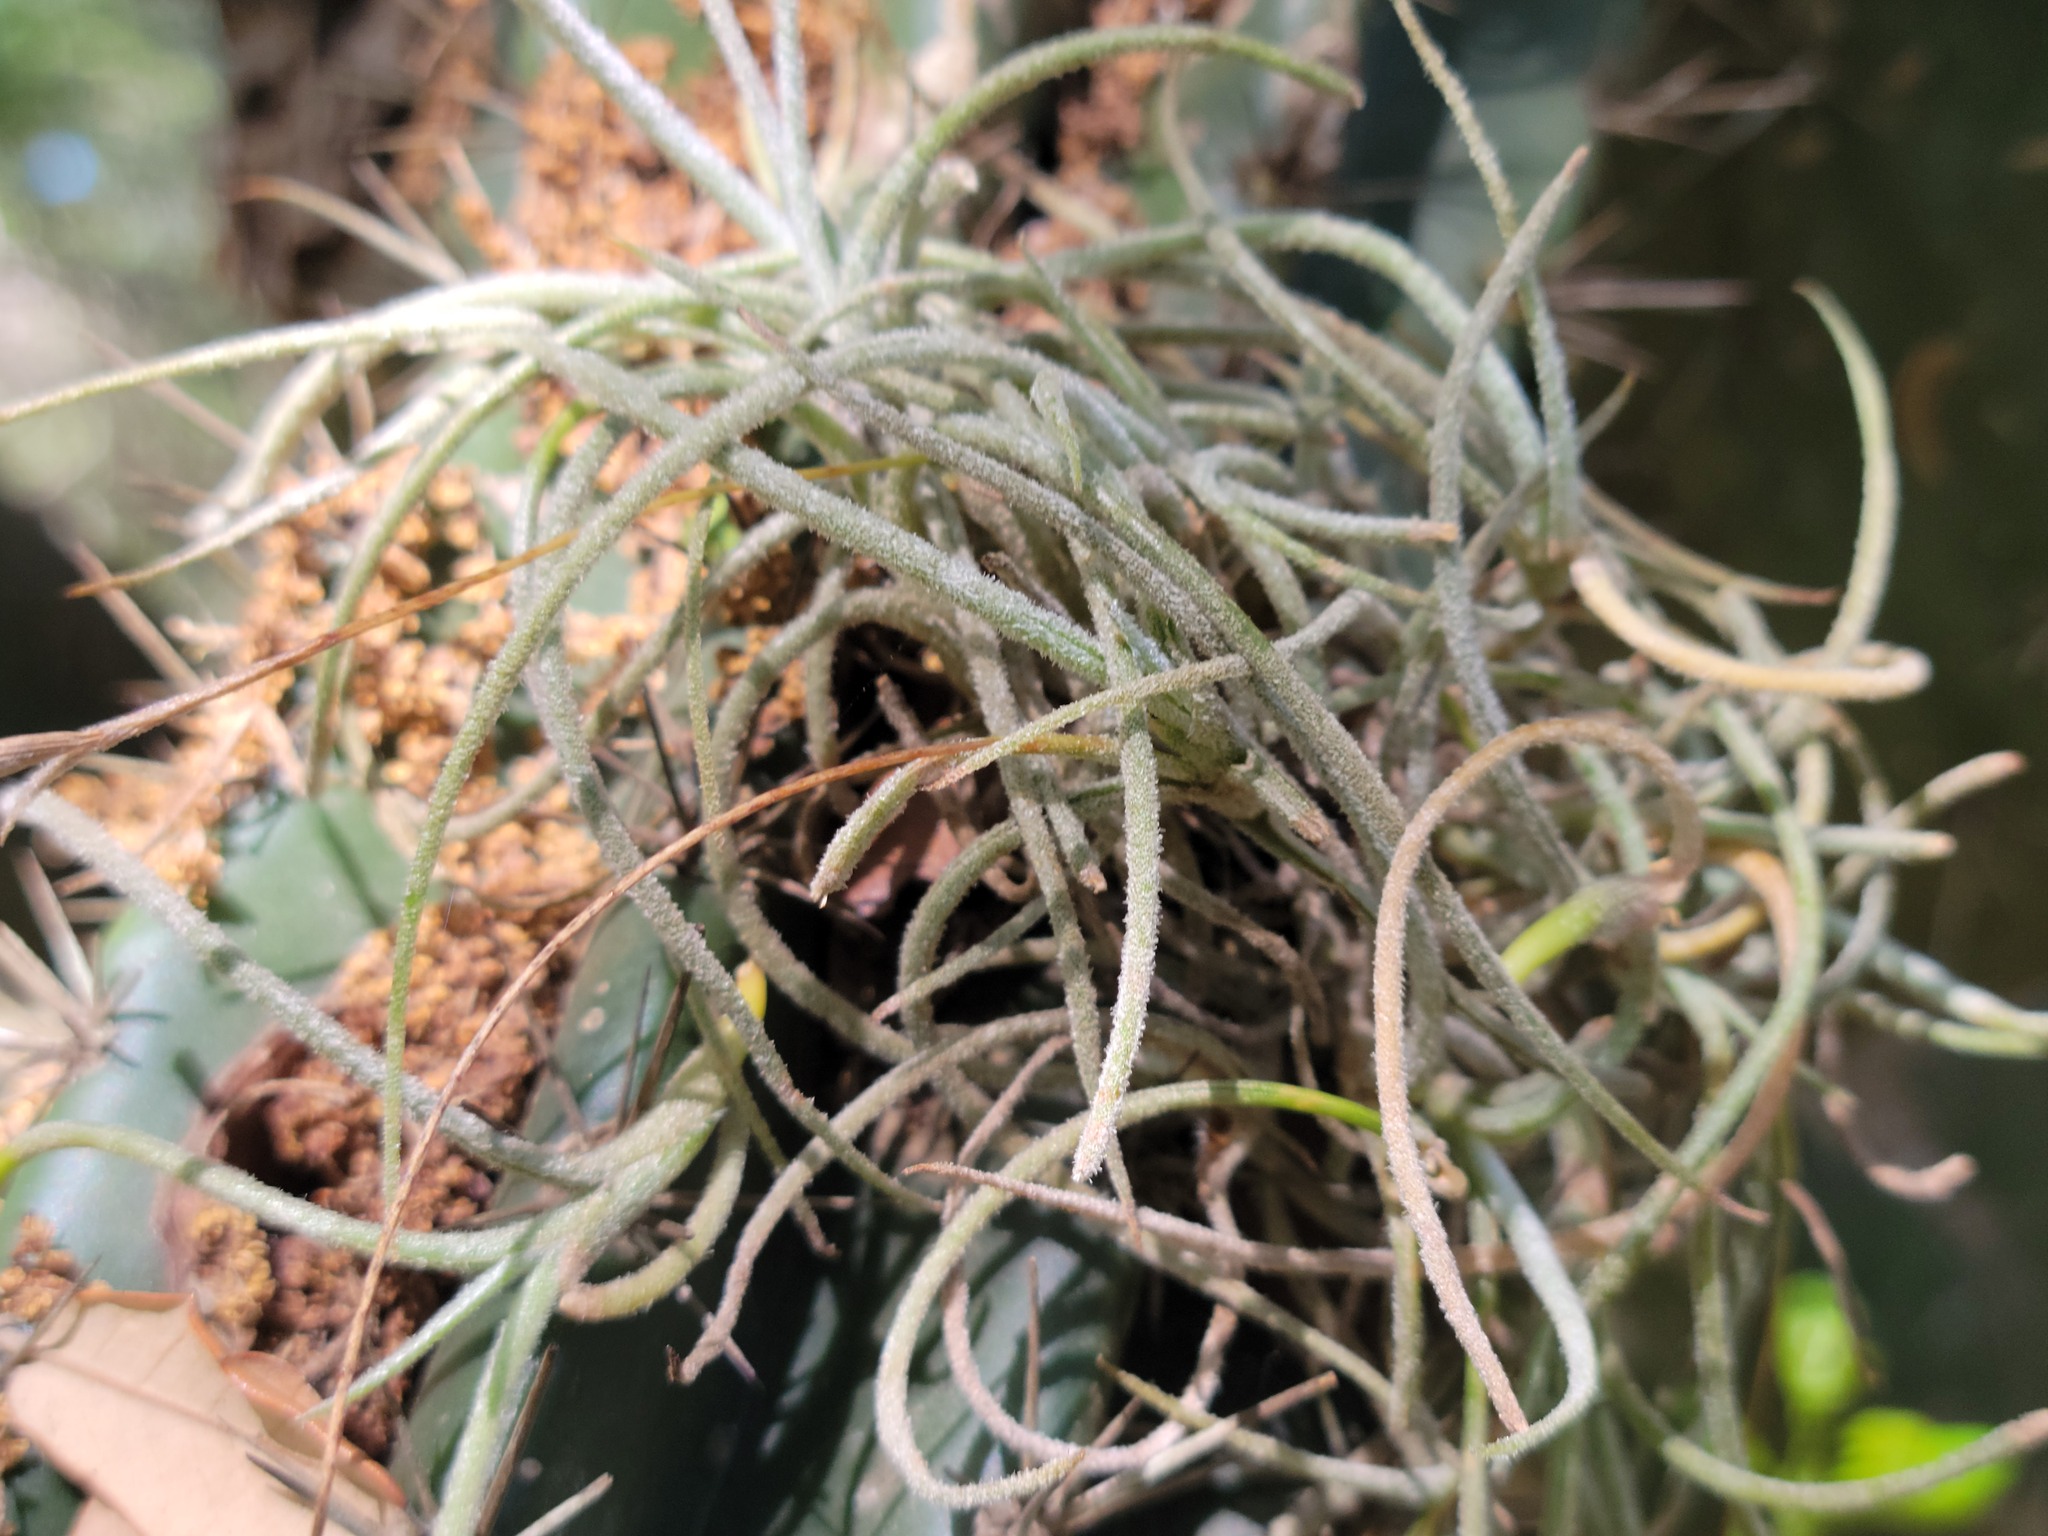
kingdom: Plantae
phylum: Tracheophyta
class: Liliopsida
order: Poales
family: Bromeliaceae
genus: Tillandsia
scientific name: Tillandsia recurvata
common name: Small ballmoss
